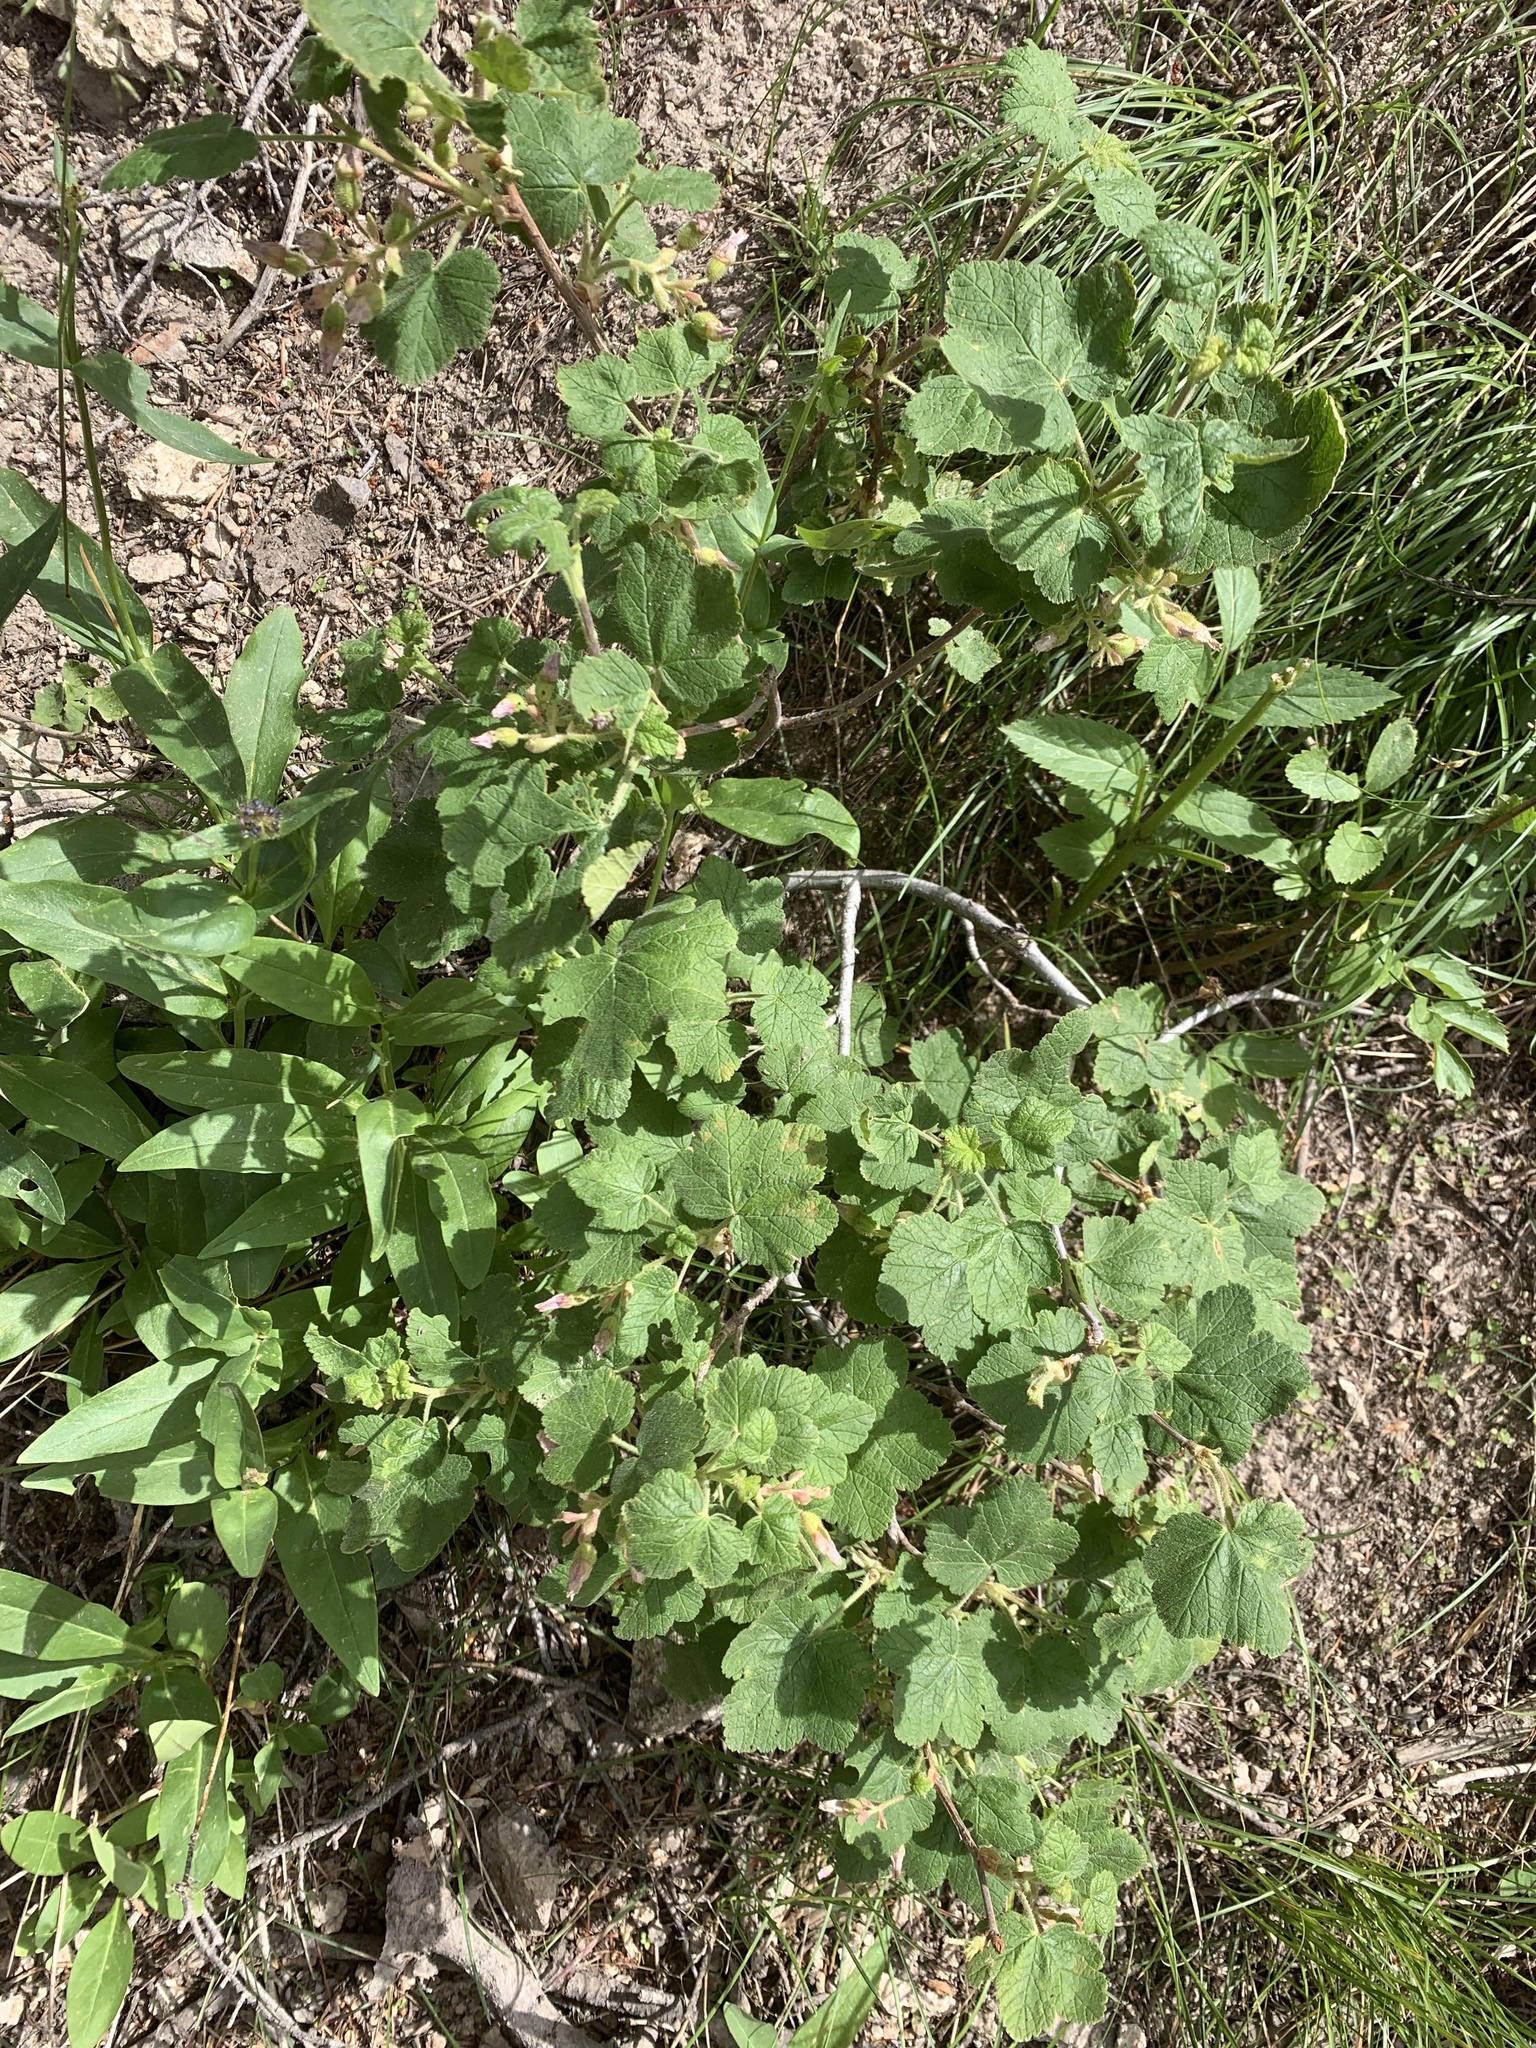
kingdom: Plantae
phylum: Tracheophyta
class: Magnoliopsida
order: Saxifragales
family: Grossulariaceae
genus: Ribes
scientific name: Ribes viscosissimum
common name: Sticky currant
